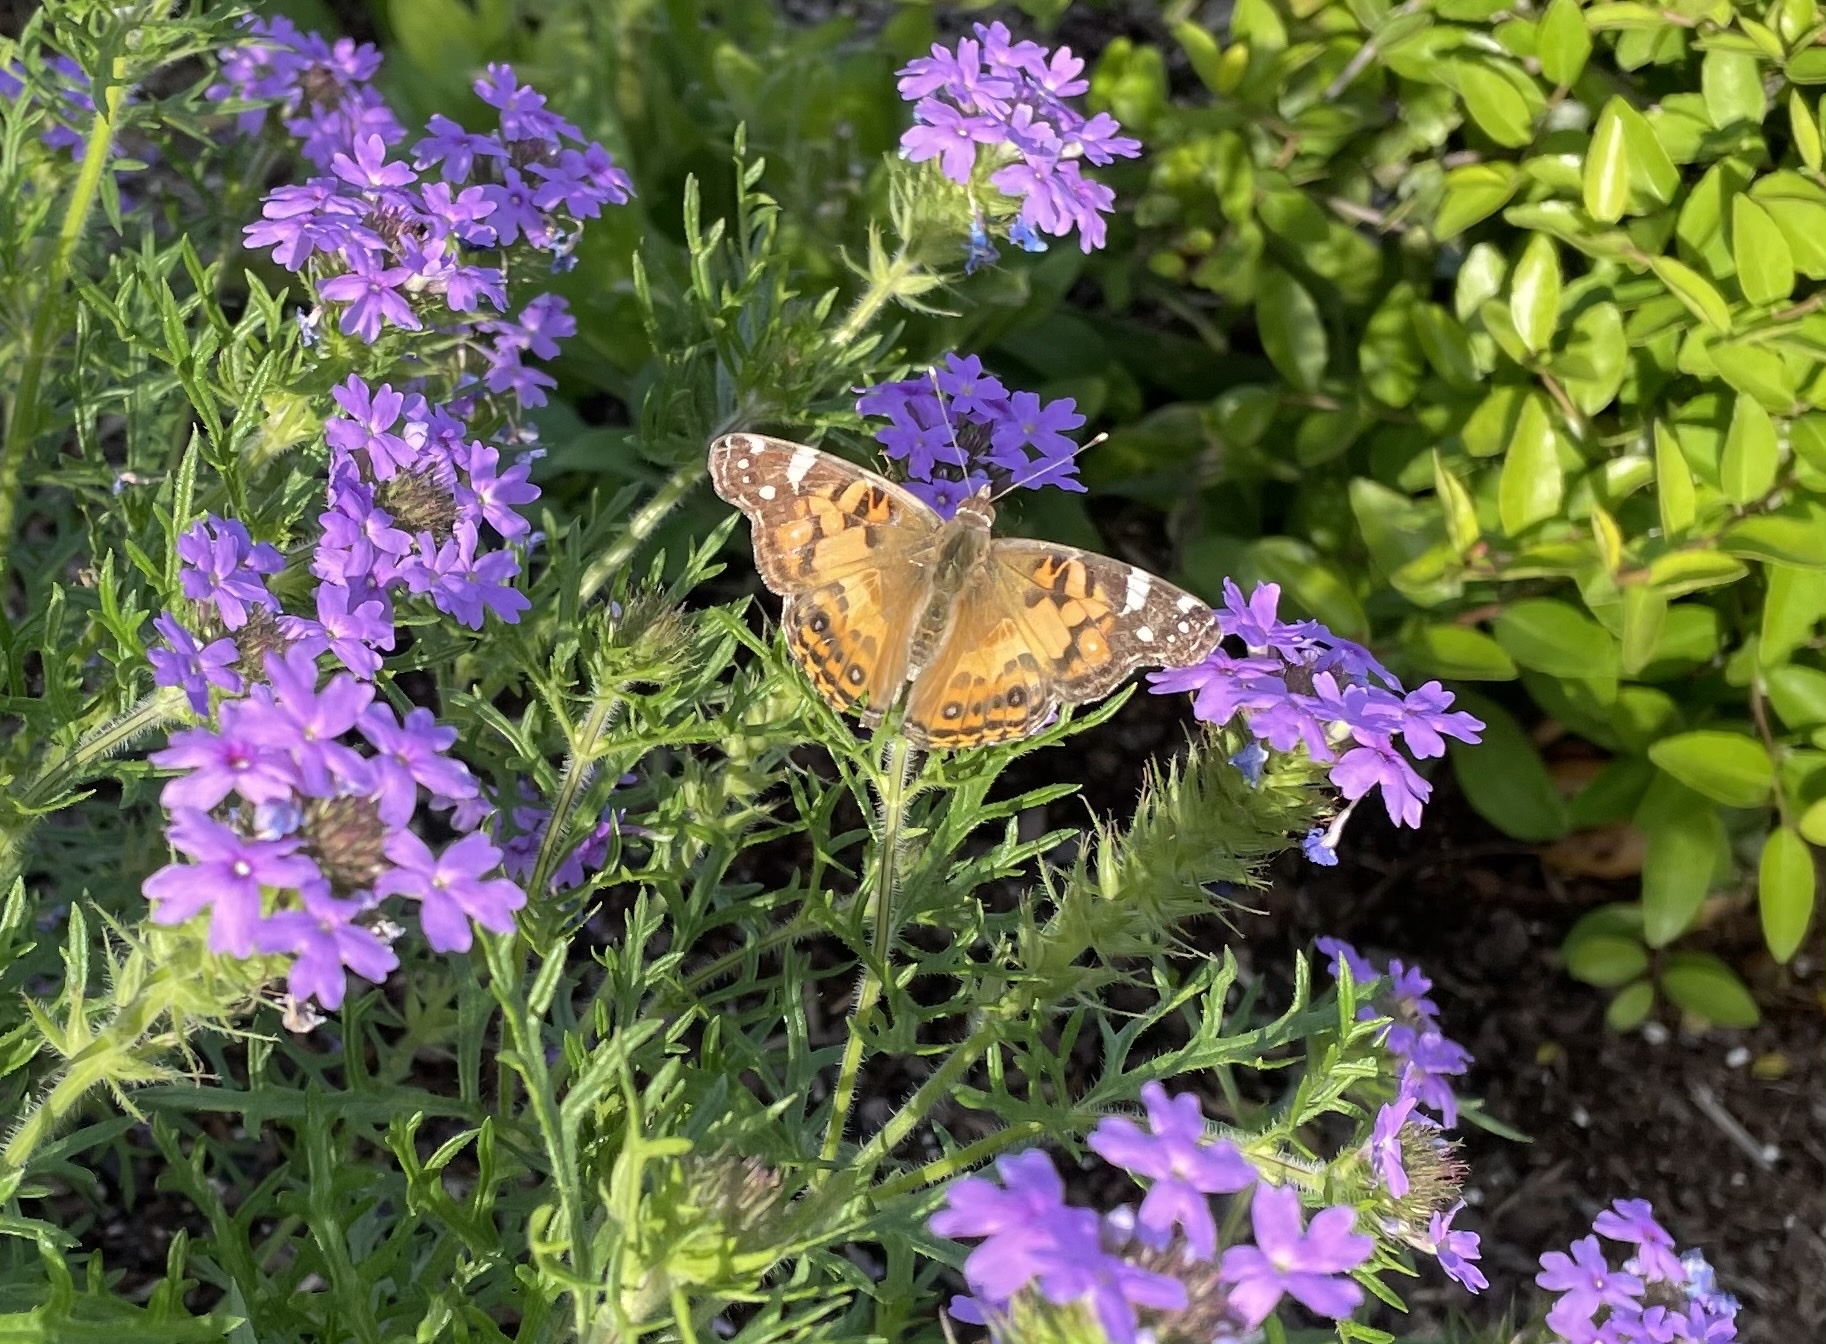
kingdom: Animalia
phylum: Arthropoda
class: Insecta
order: Lepidoptera
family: Nymphalidae
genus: Vanessa
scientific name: Vanessa virginiensis
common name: American lady
